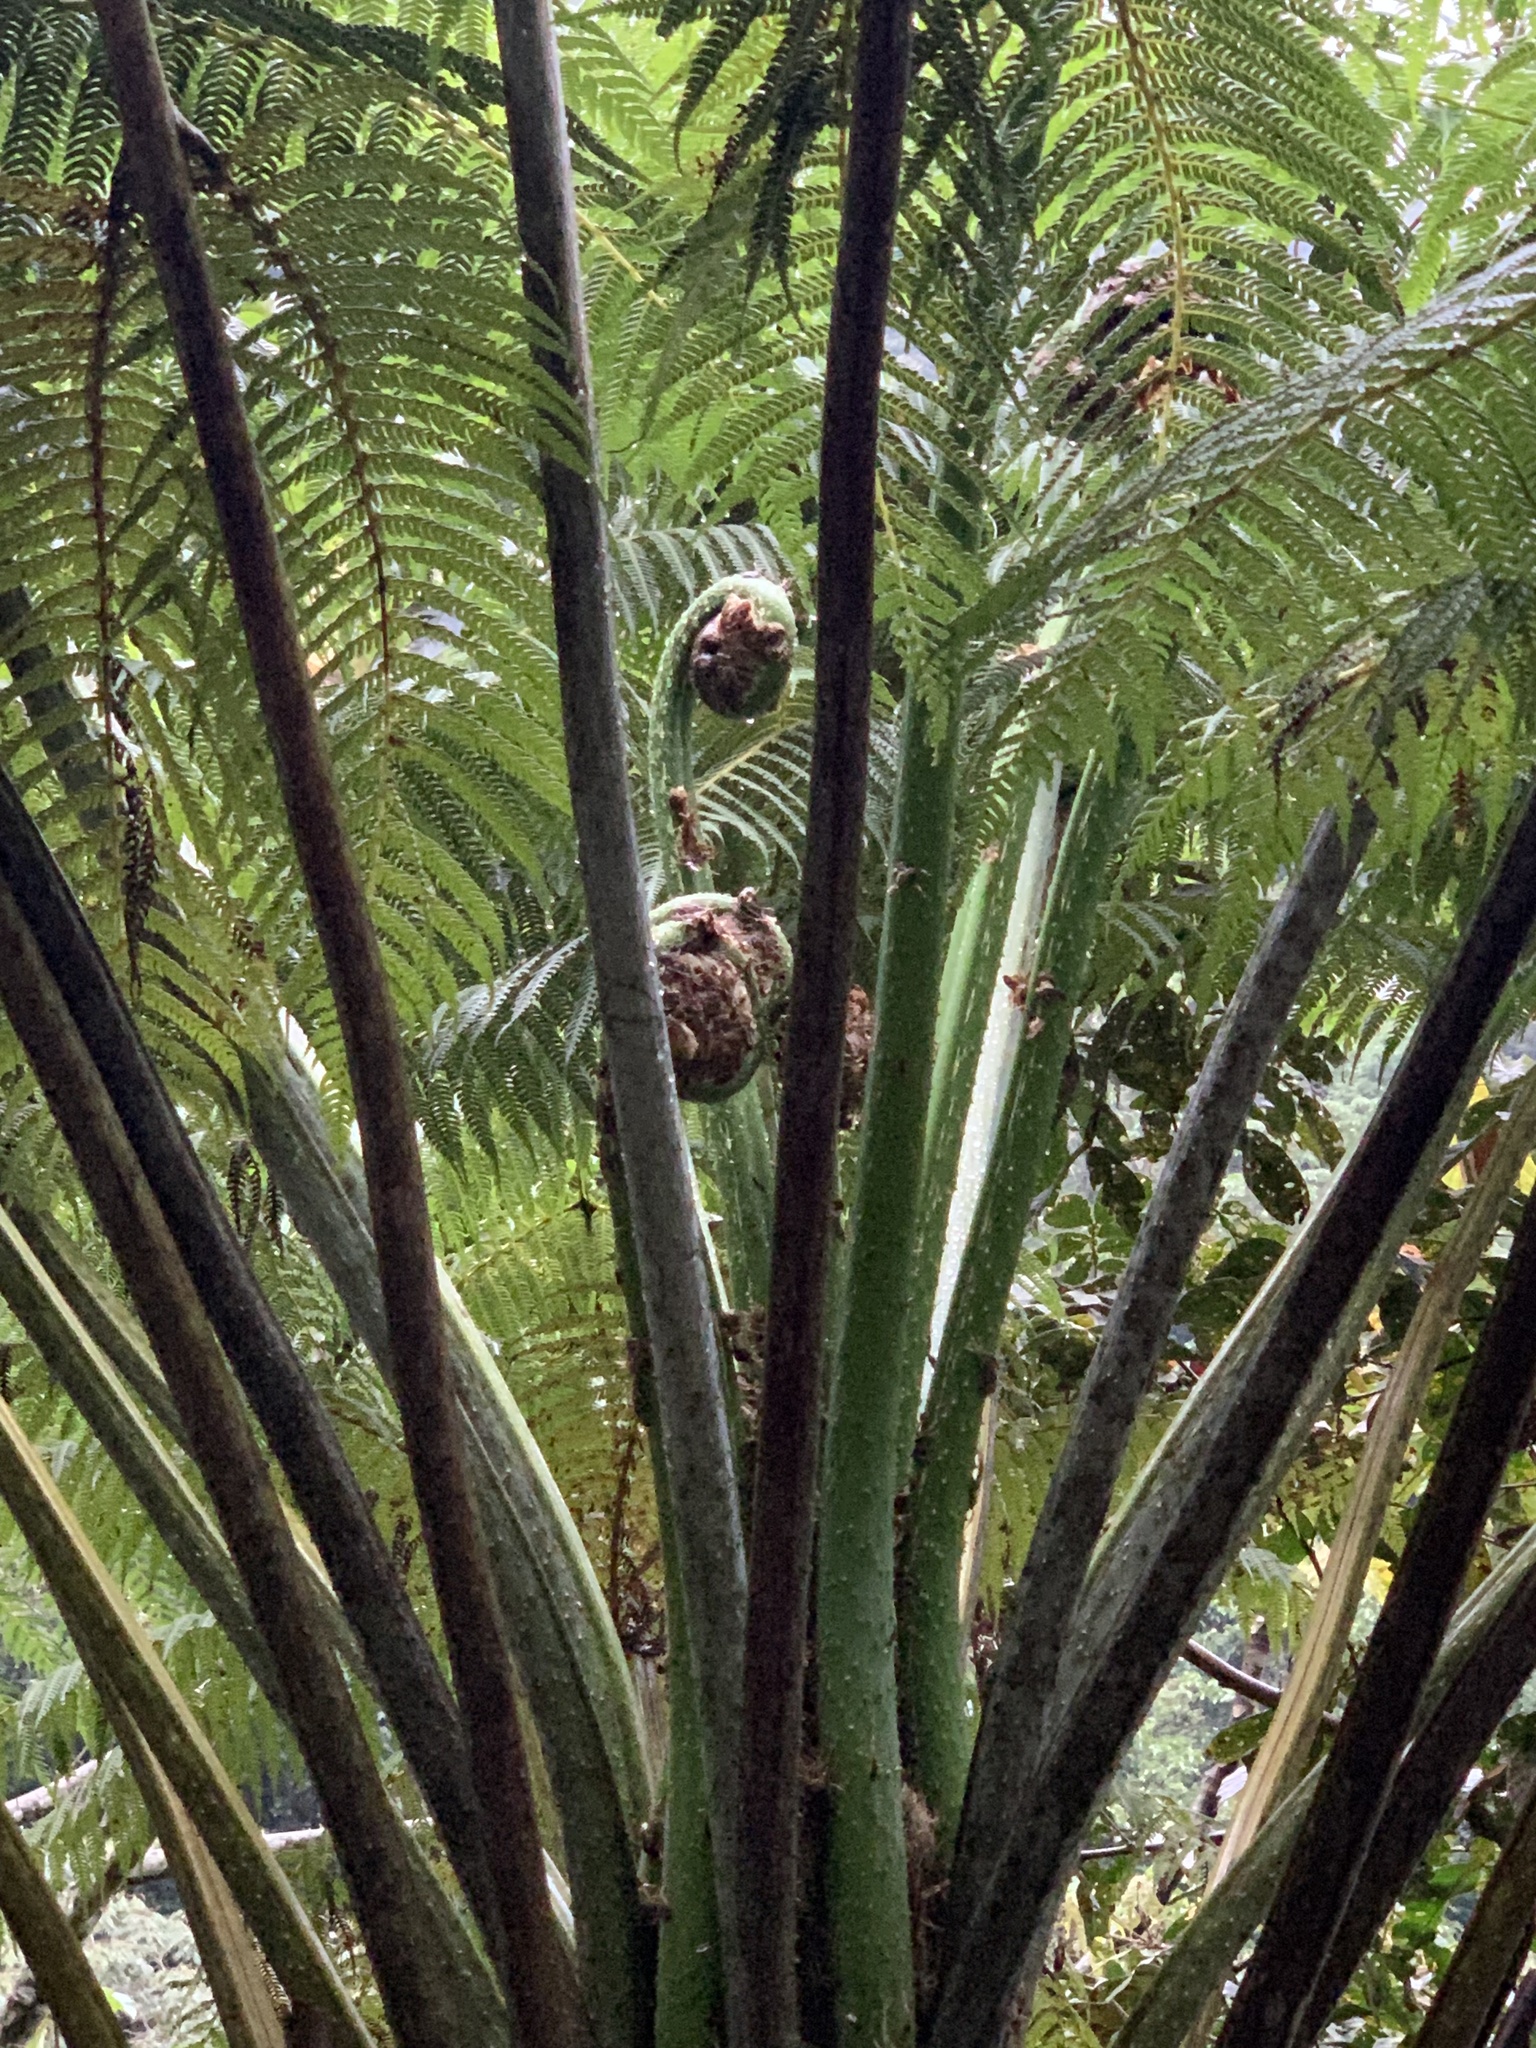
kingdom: Plantae
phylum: Tracheophyta
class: Polypodiopsida
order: Cyatheales
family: Cyatheaceae
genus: Cyathea
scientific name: Cyathea conjugata
